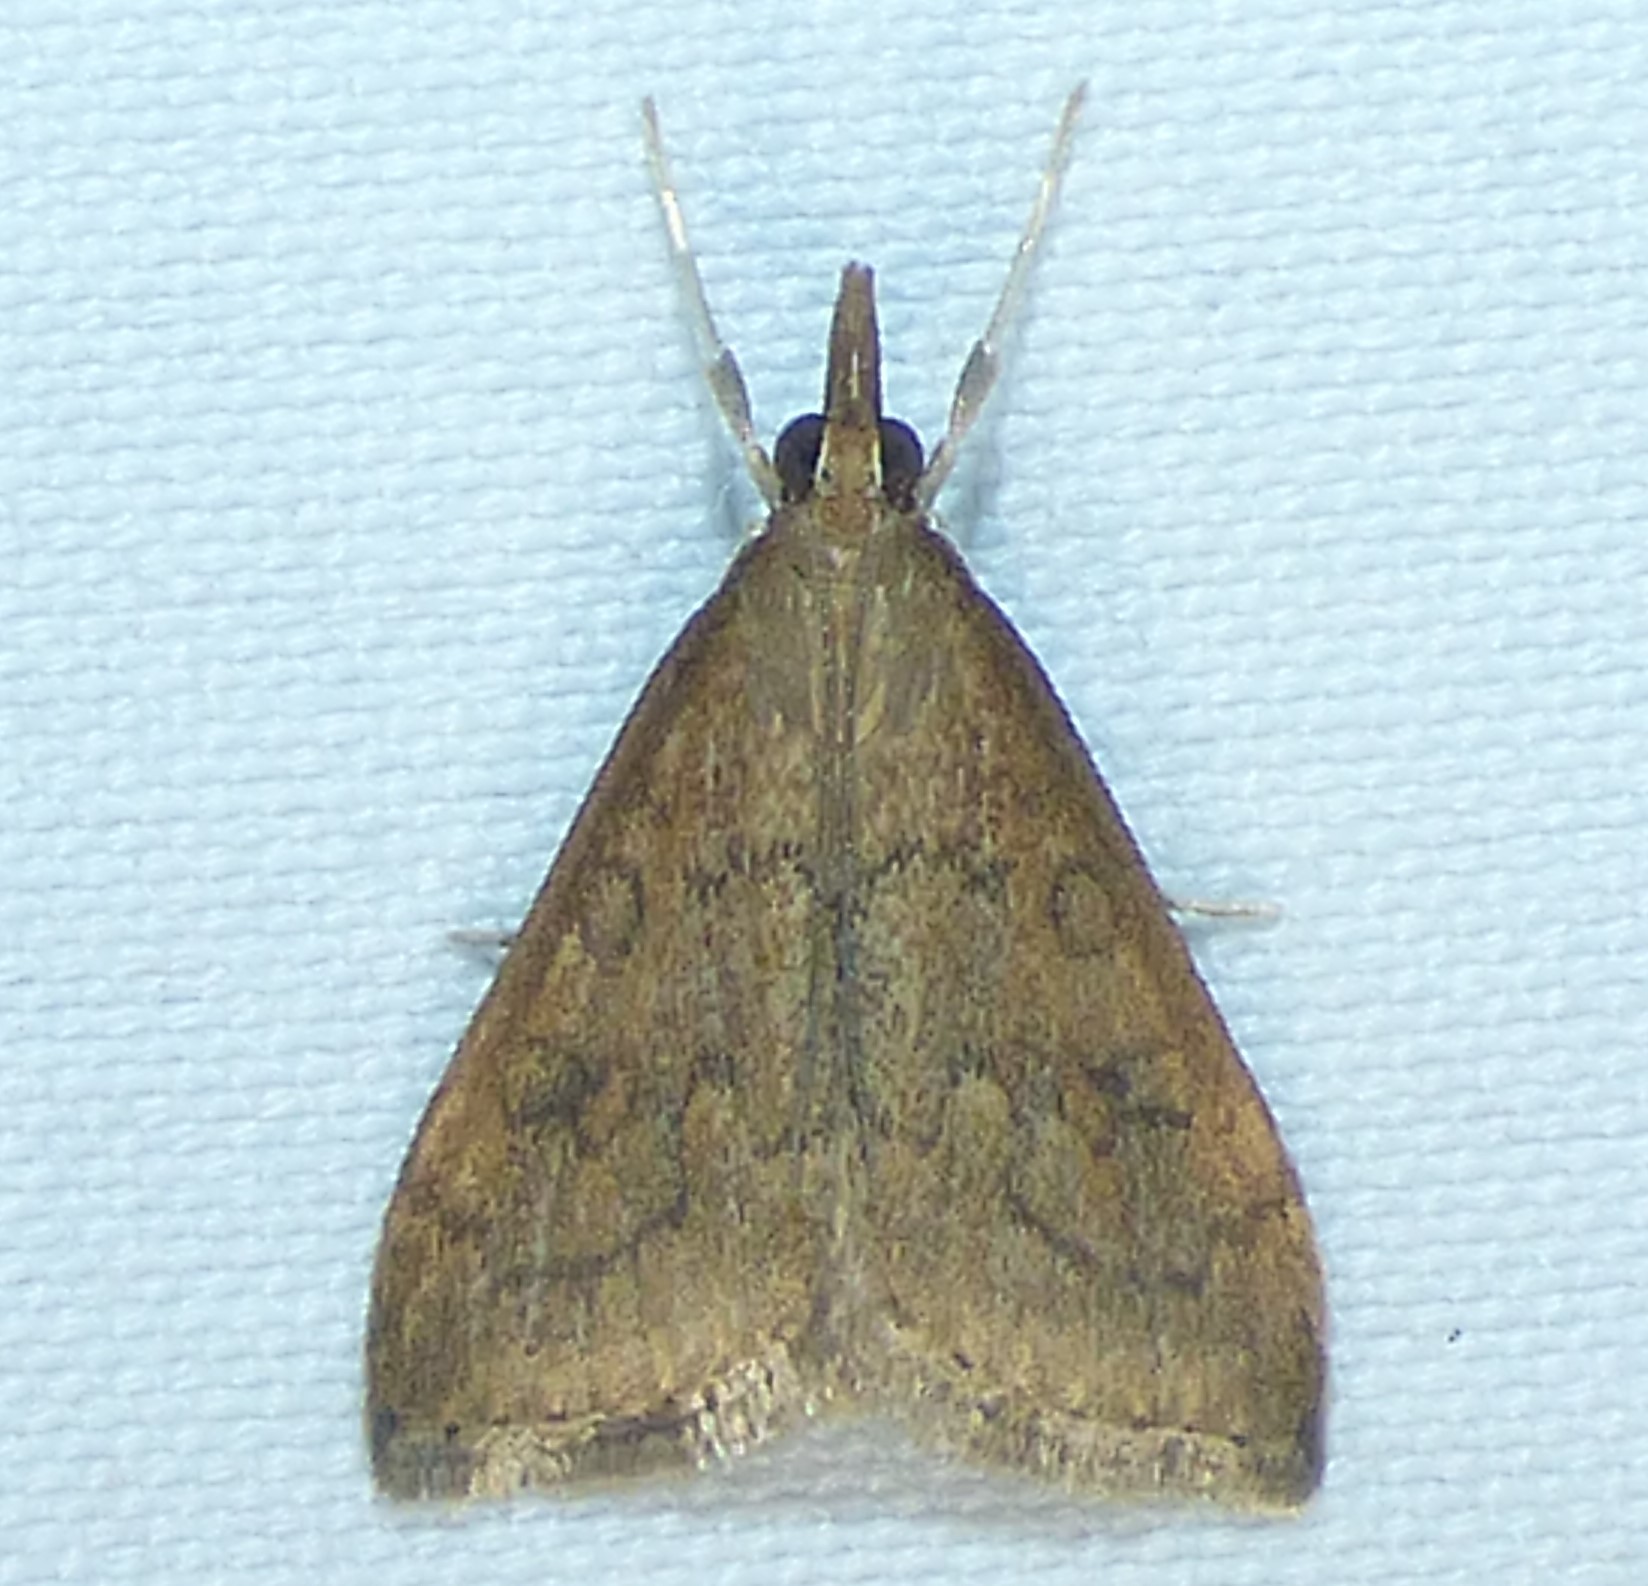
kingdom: Animalia
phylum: Arthropoda
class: Insecta
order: Lepidoptera
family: Crambidae
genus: Udea
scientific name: Udea rubigalis
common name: Celery leaftier moth
